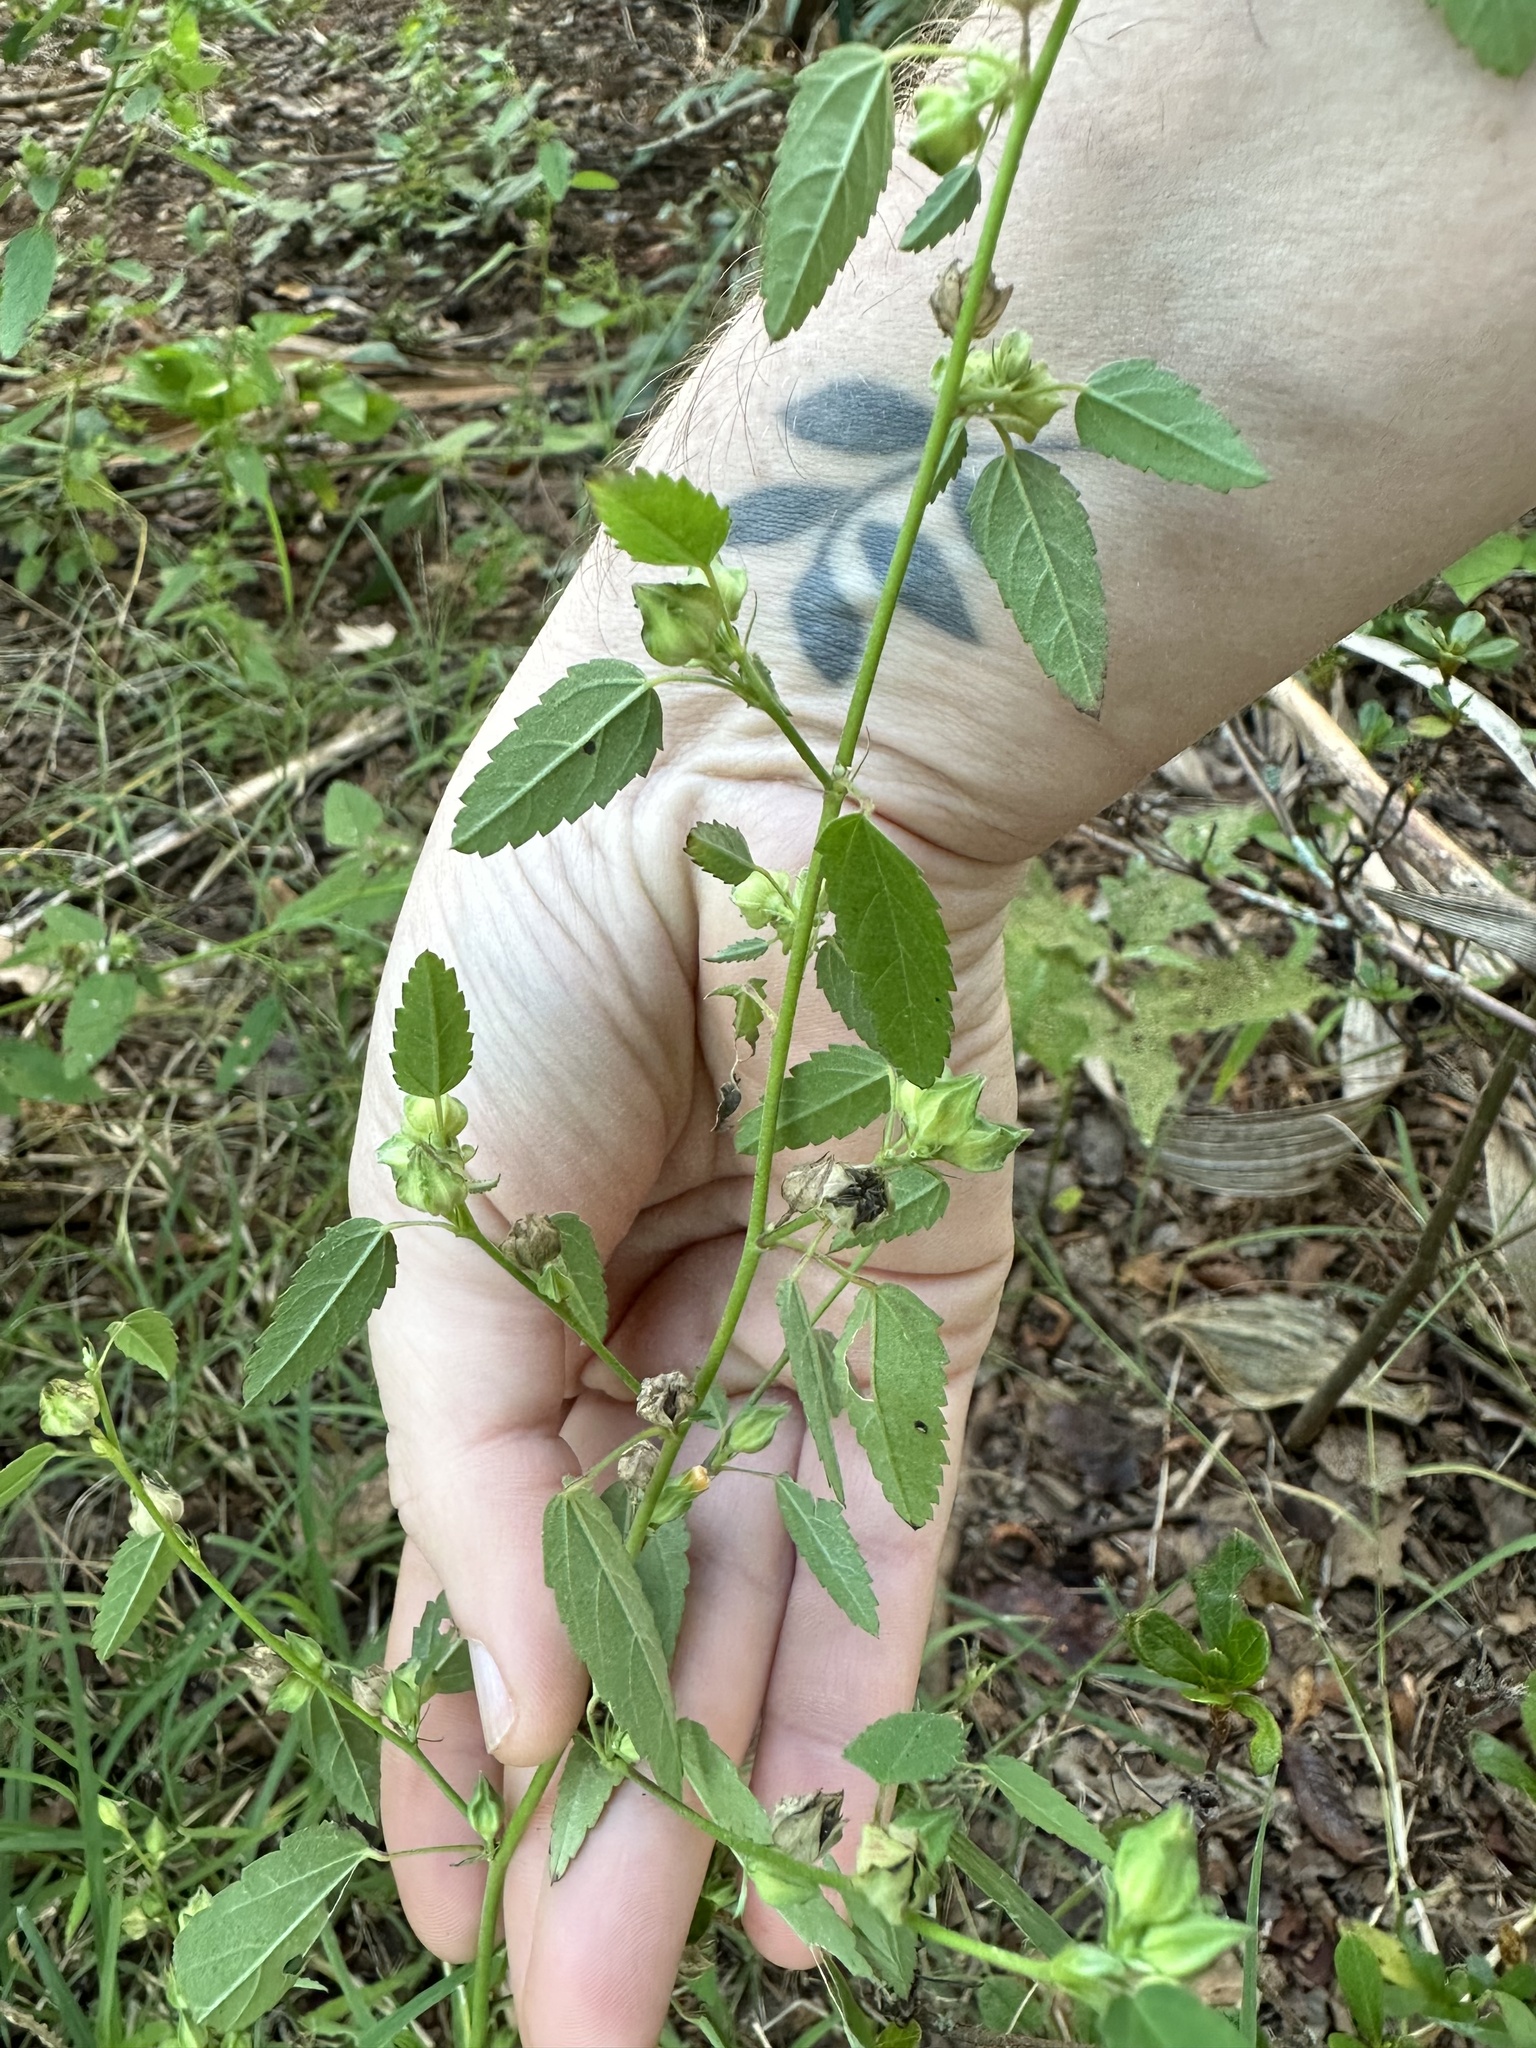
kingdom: Plantae
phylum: Tracheophyta
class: Magnoliopsida
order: Malvales
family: Malvaceae
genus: Sida
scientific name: Sida spinosa
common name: Prickly fanpetals
